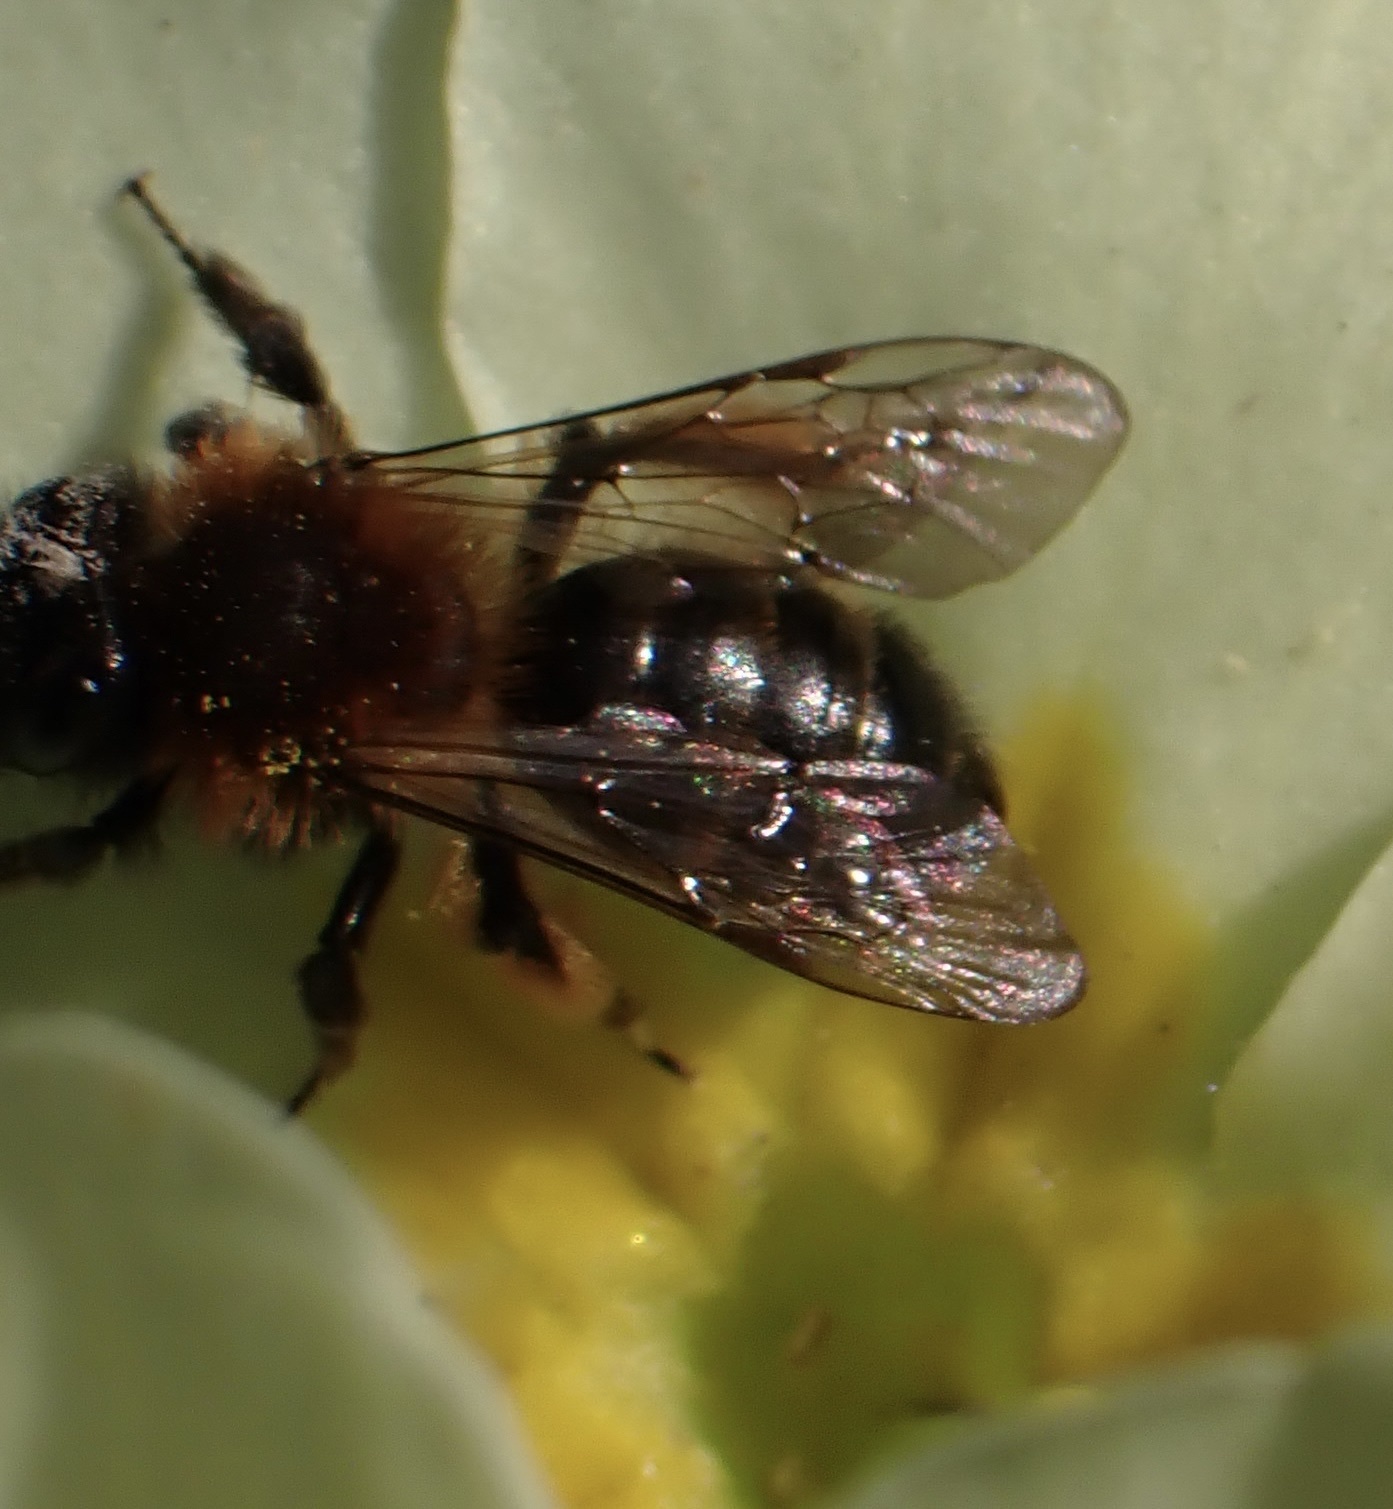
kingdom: Animalia
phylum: Arthropoda
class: Insecta
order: Hymenoptera
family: Andrenidae
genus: Andrena
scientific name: Andrena bicolor
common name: Gwynne's mining bee
